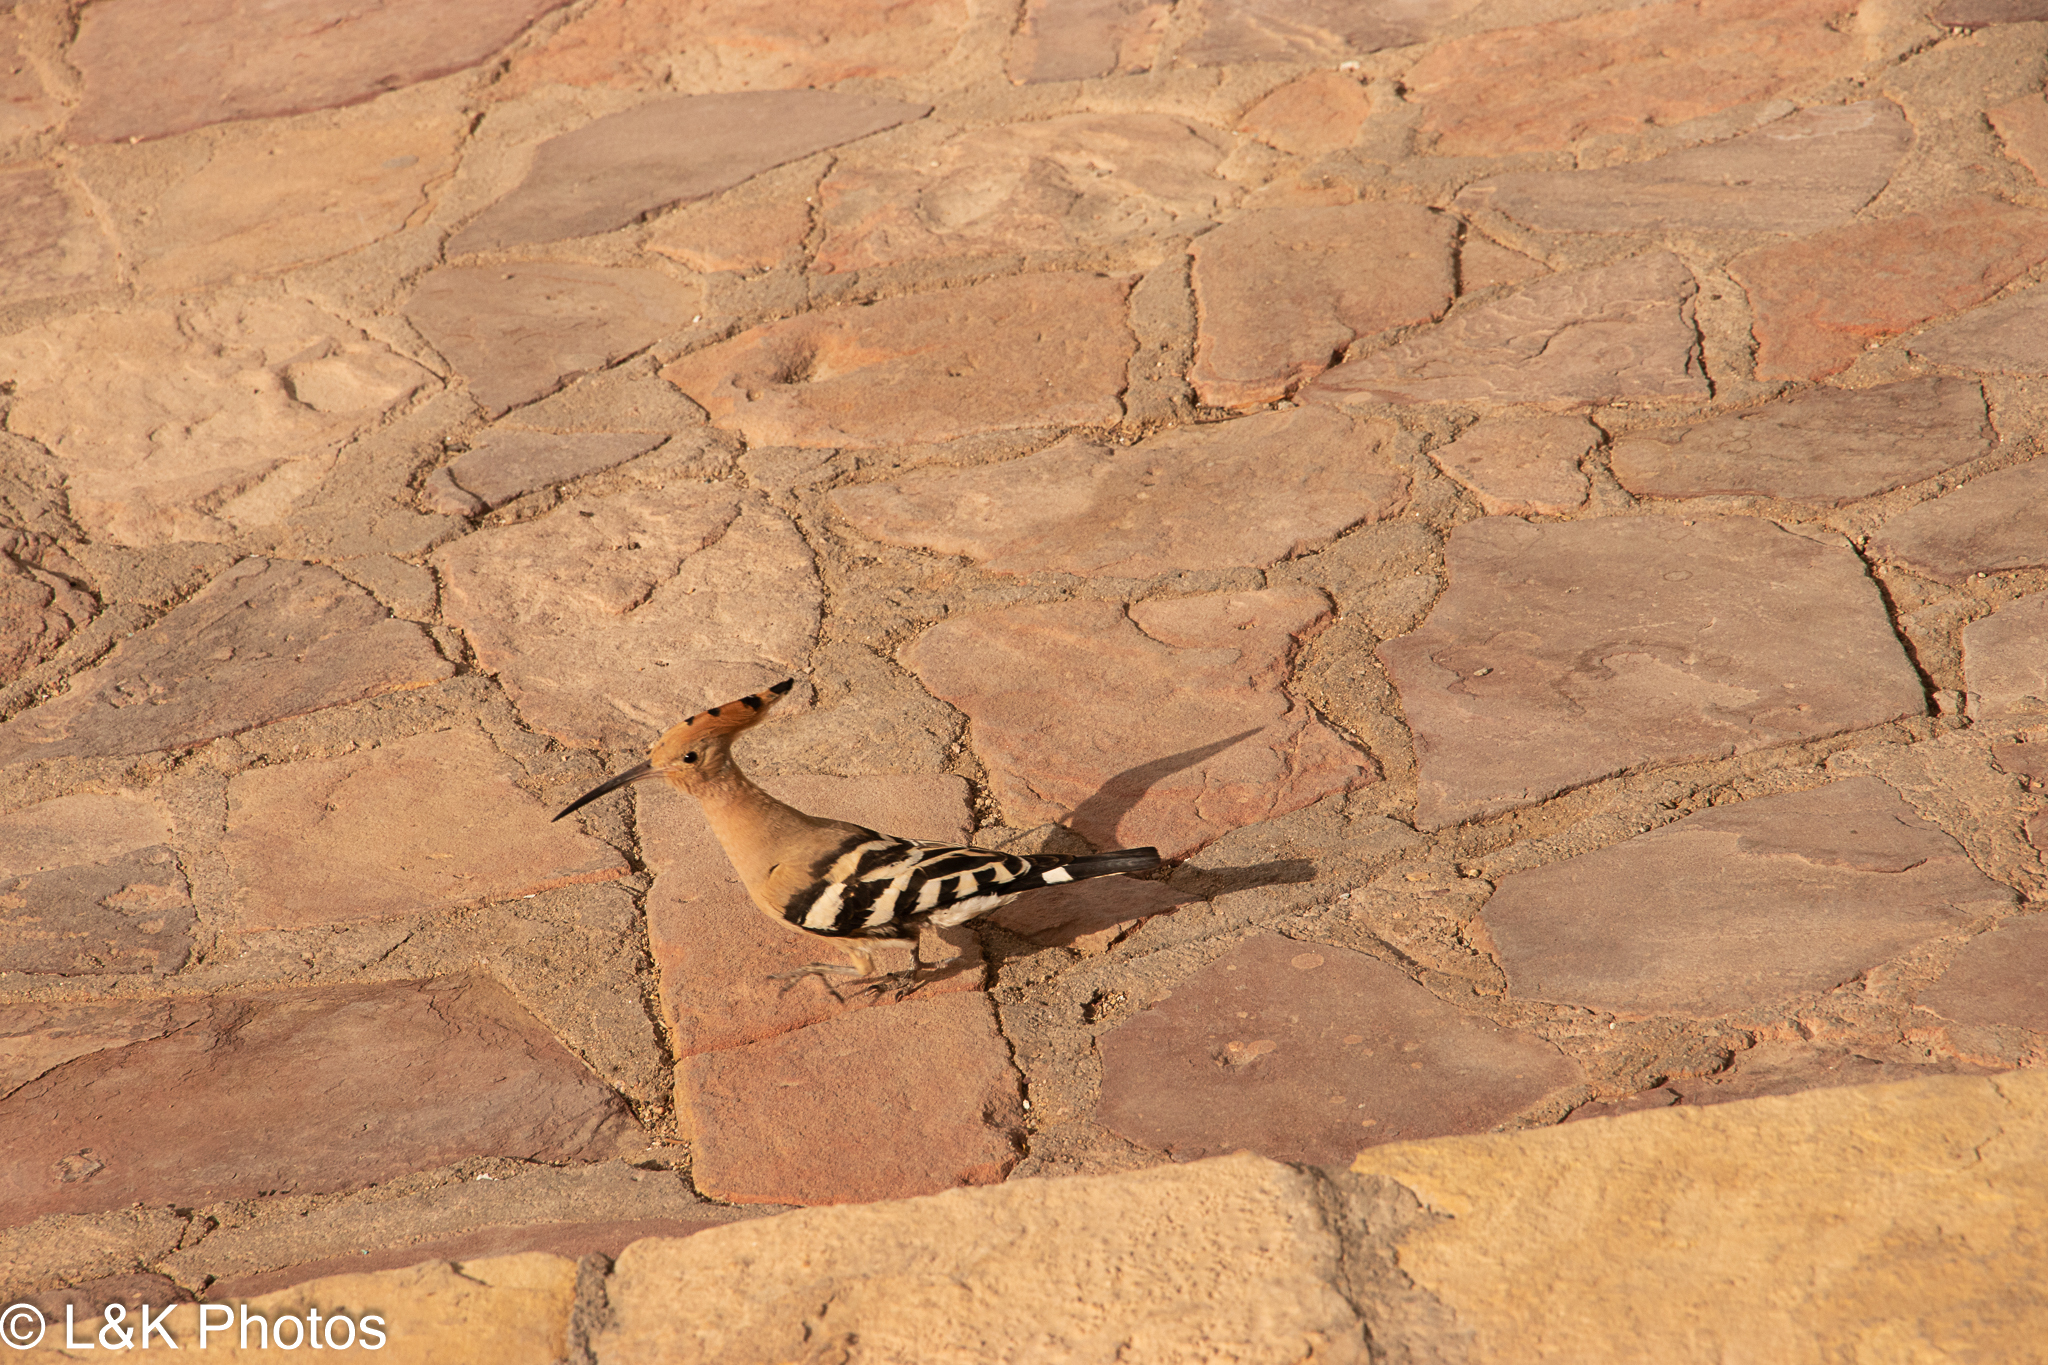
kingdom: Animalia
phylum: Chordata
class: Aves
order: Bucerotiformes
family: Upupidae
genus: Upupa
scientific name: Upupa epops
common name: Eurasian hoopoe
